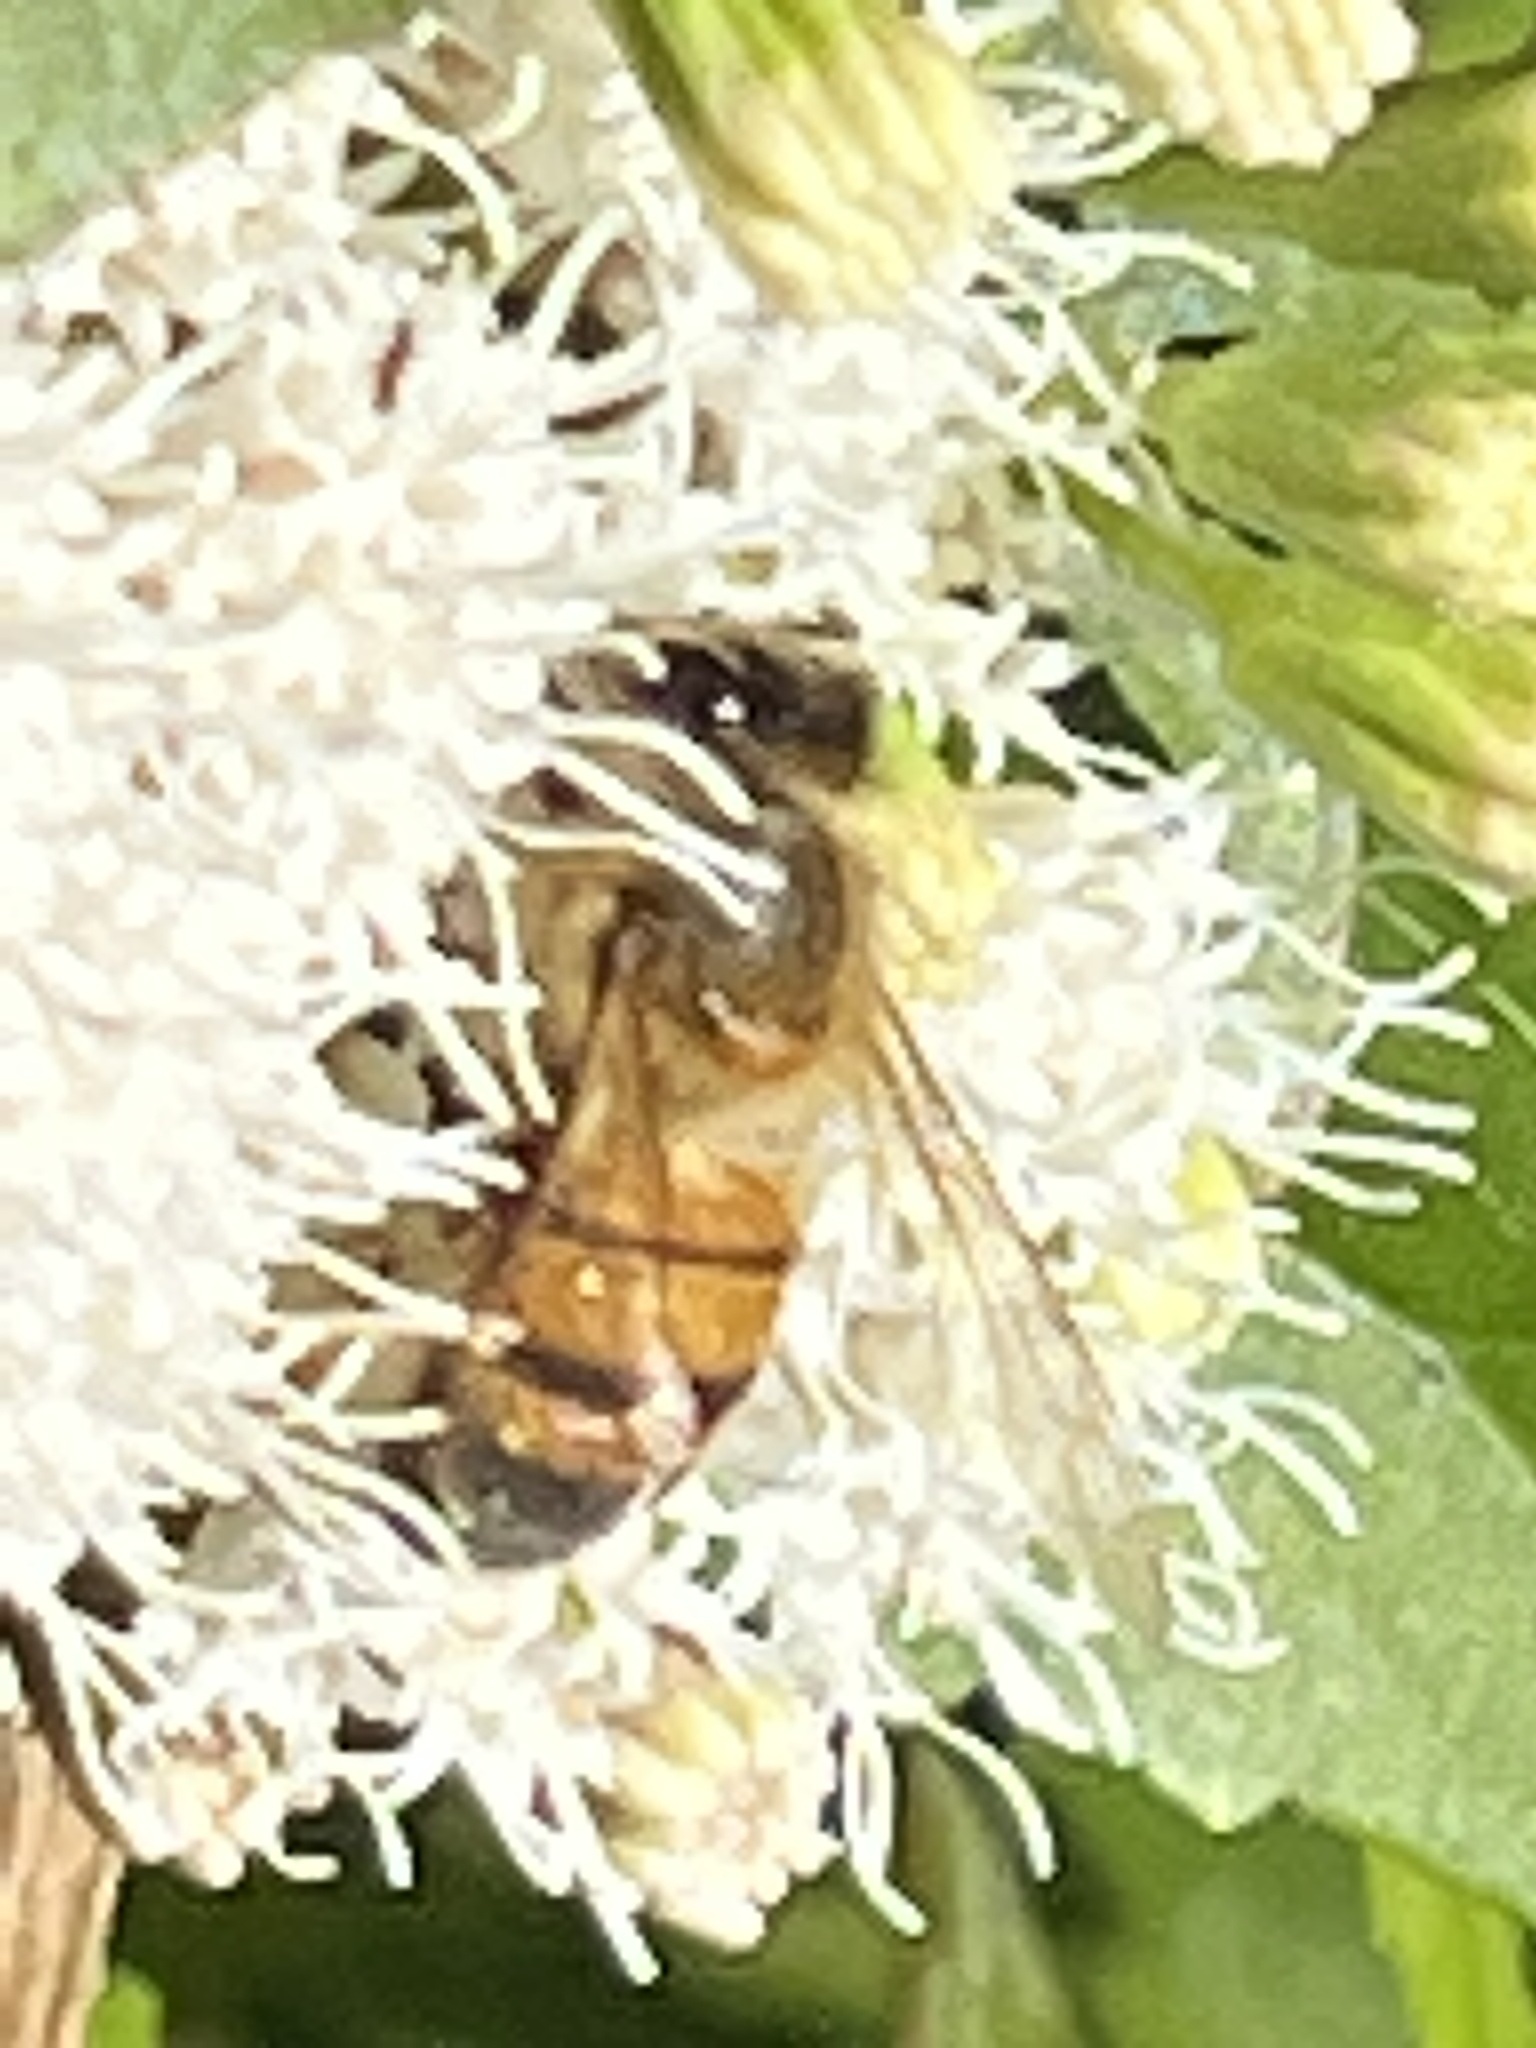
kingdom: Animalia
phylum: Arthropoda
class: Insecta
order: Hymenoptera
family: Apidae
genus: Apis
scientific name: Apis mellifera
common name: Honey bee
